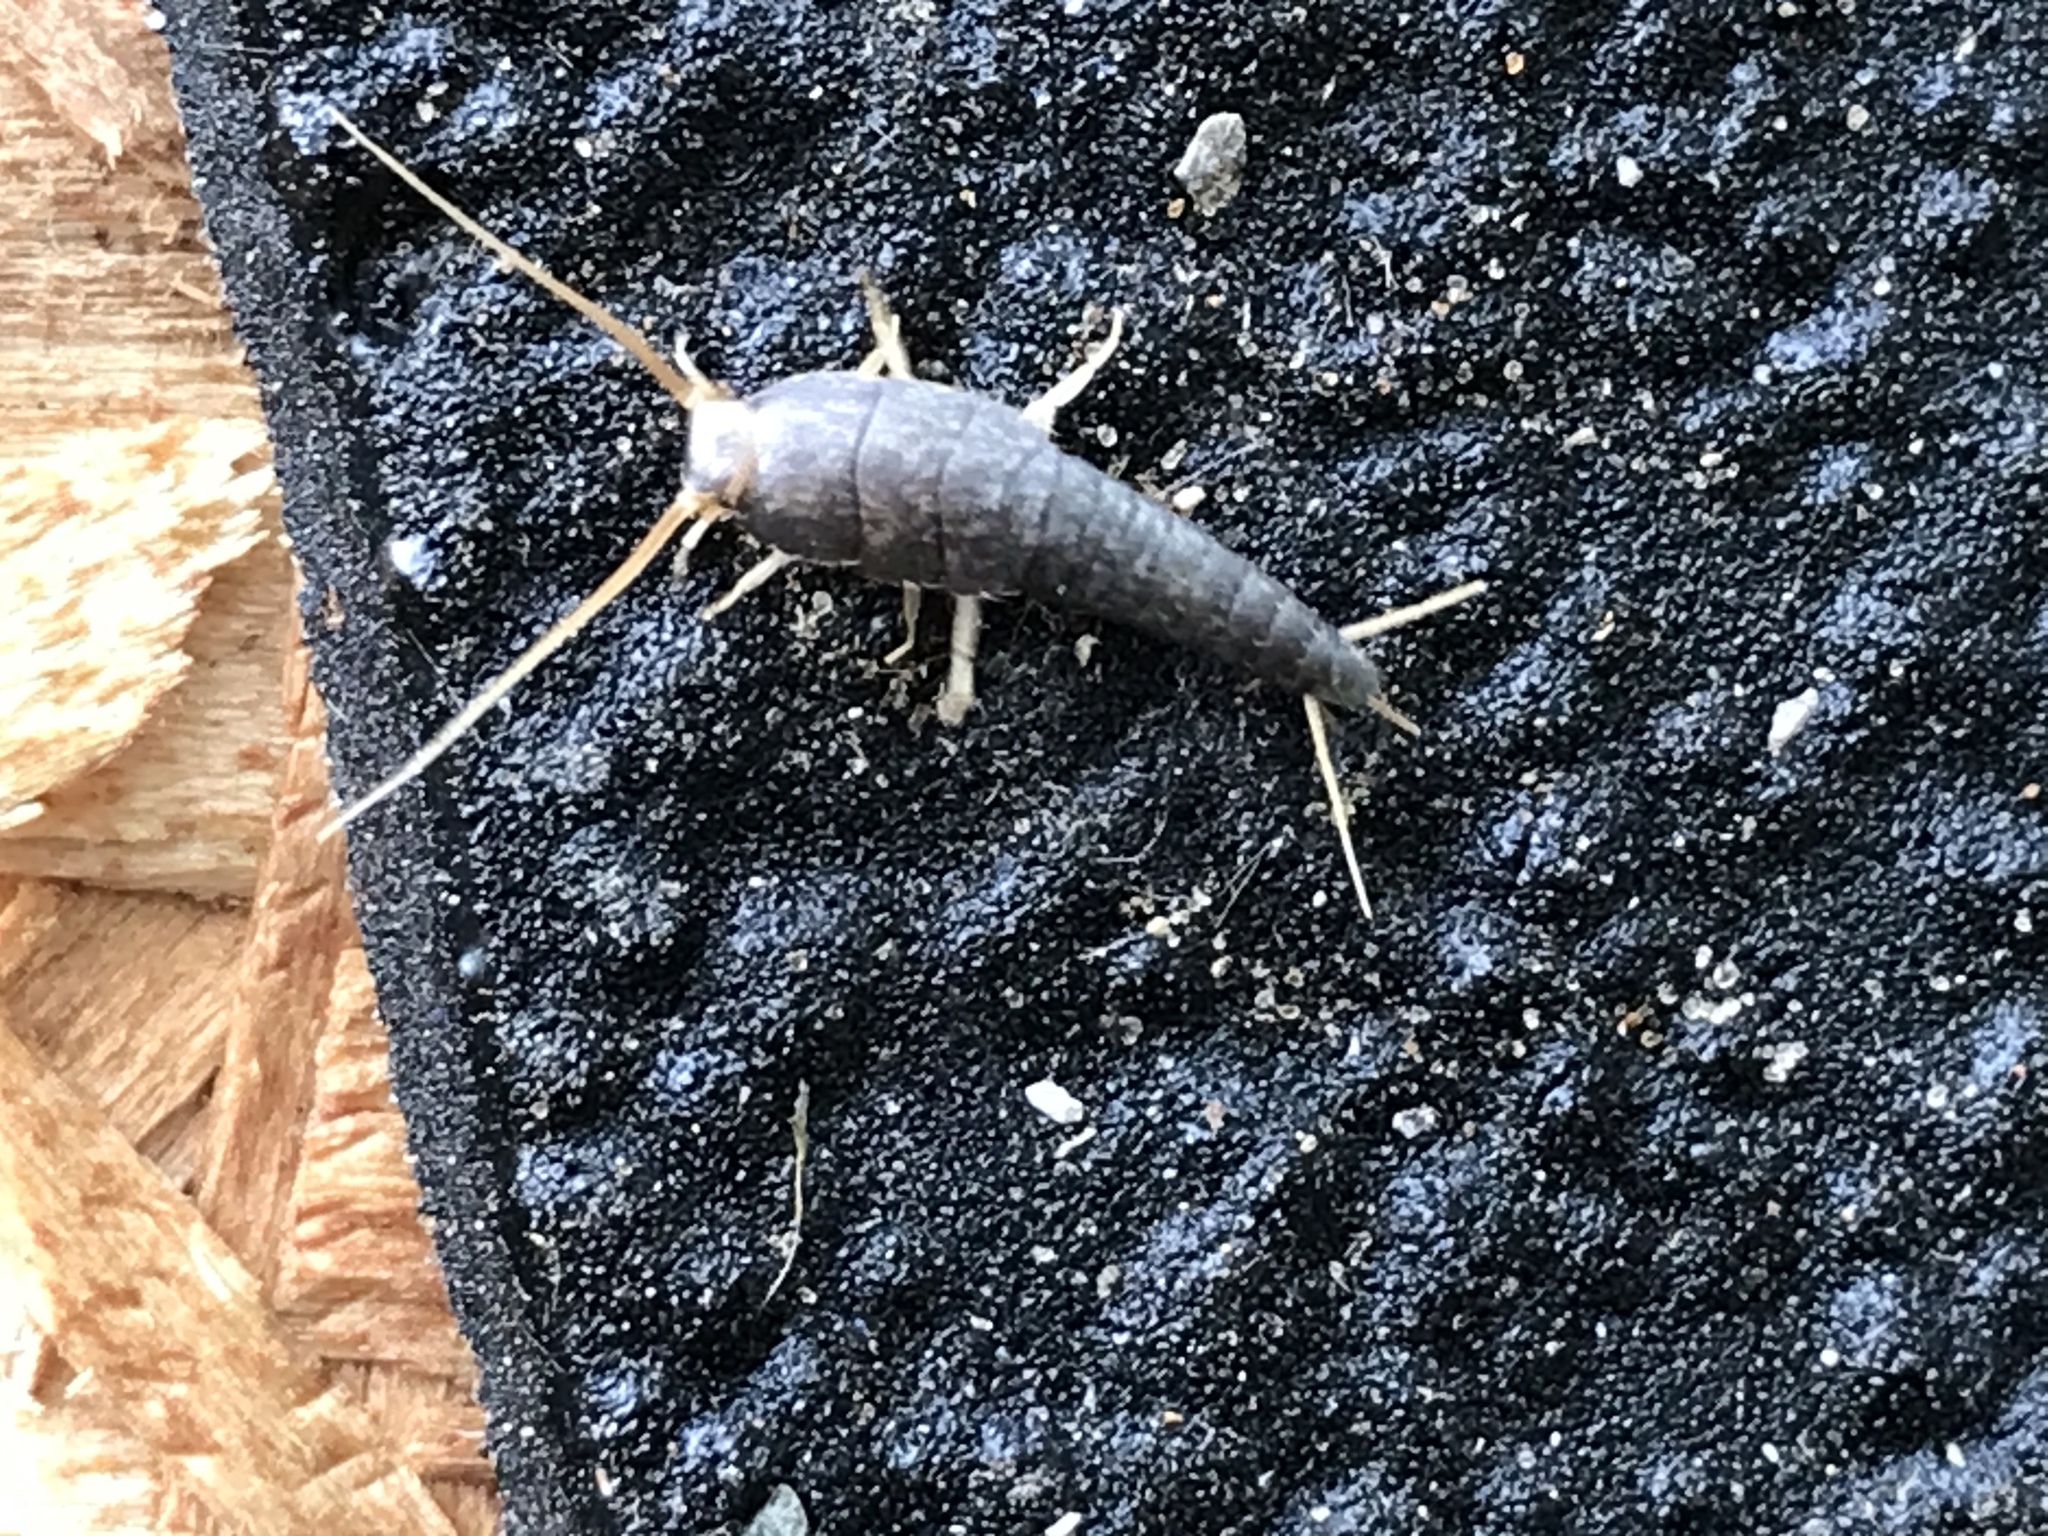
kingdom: Animalia
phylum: Arthropoda
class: Insecta
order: Zygentoma
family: Lepismatidae
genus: Lepisma
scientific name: Lepisma saccharinum
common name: Silverfish
